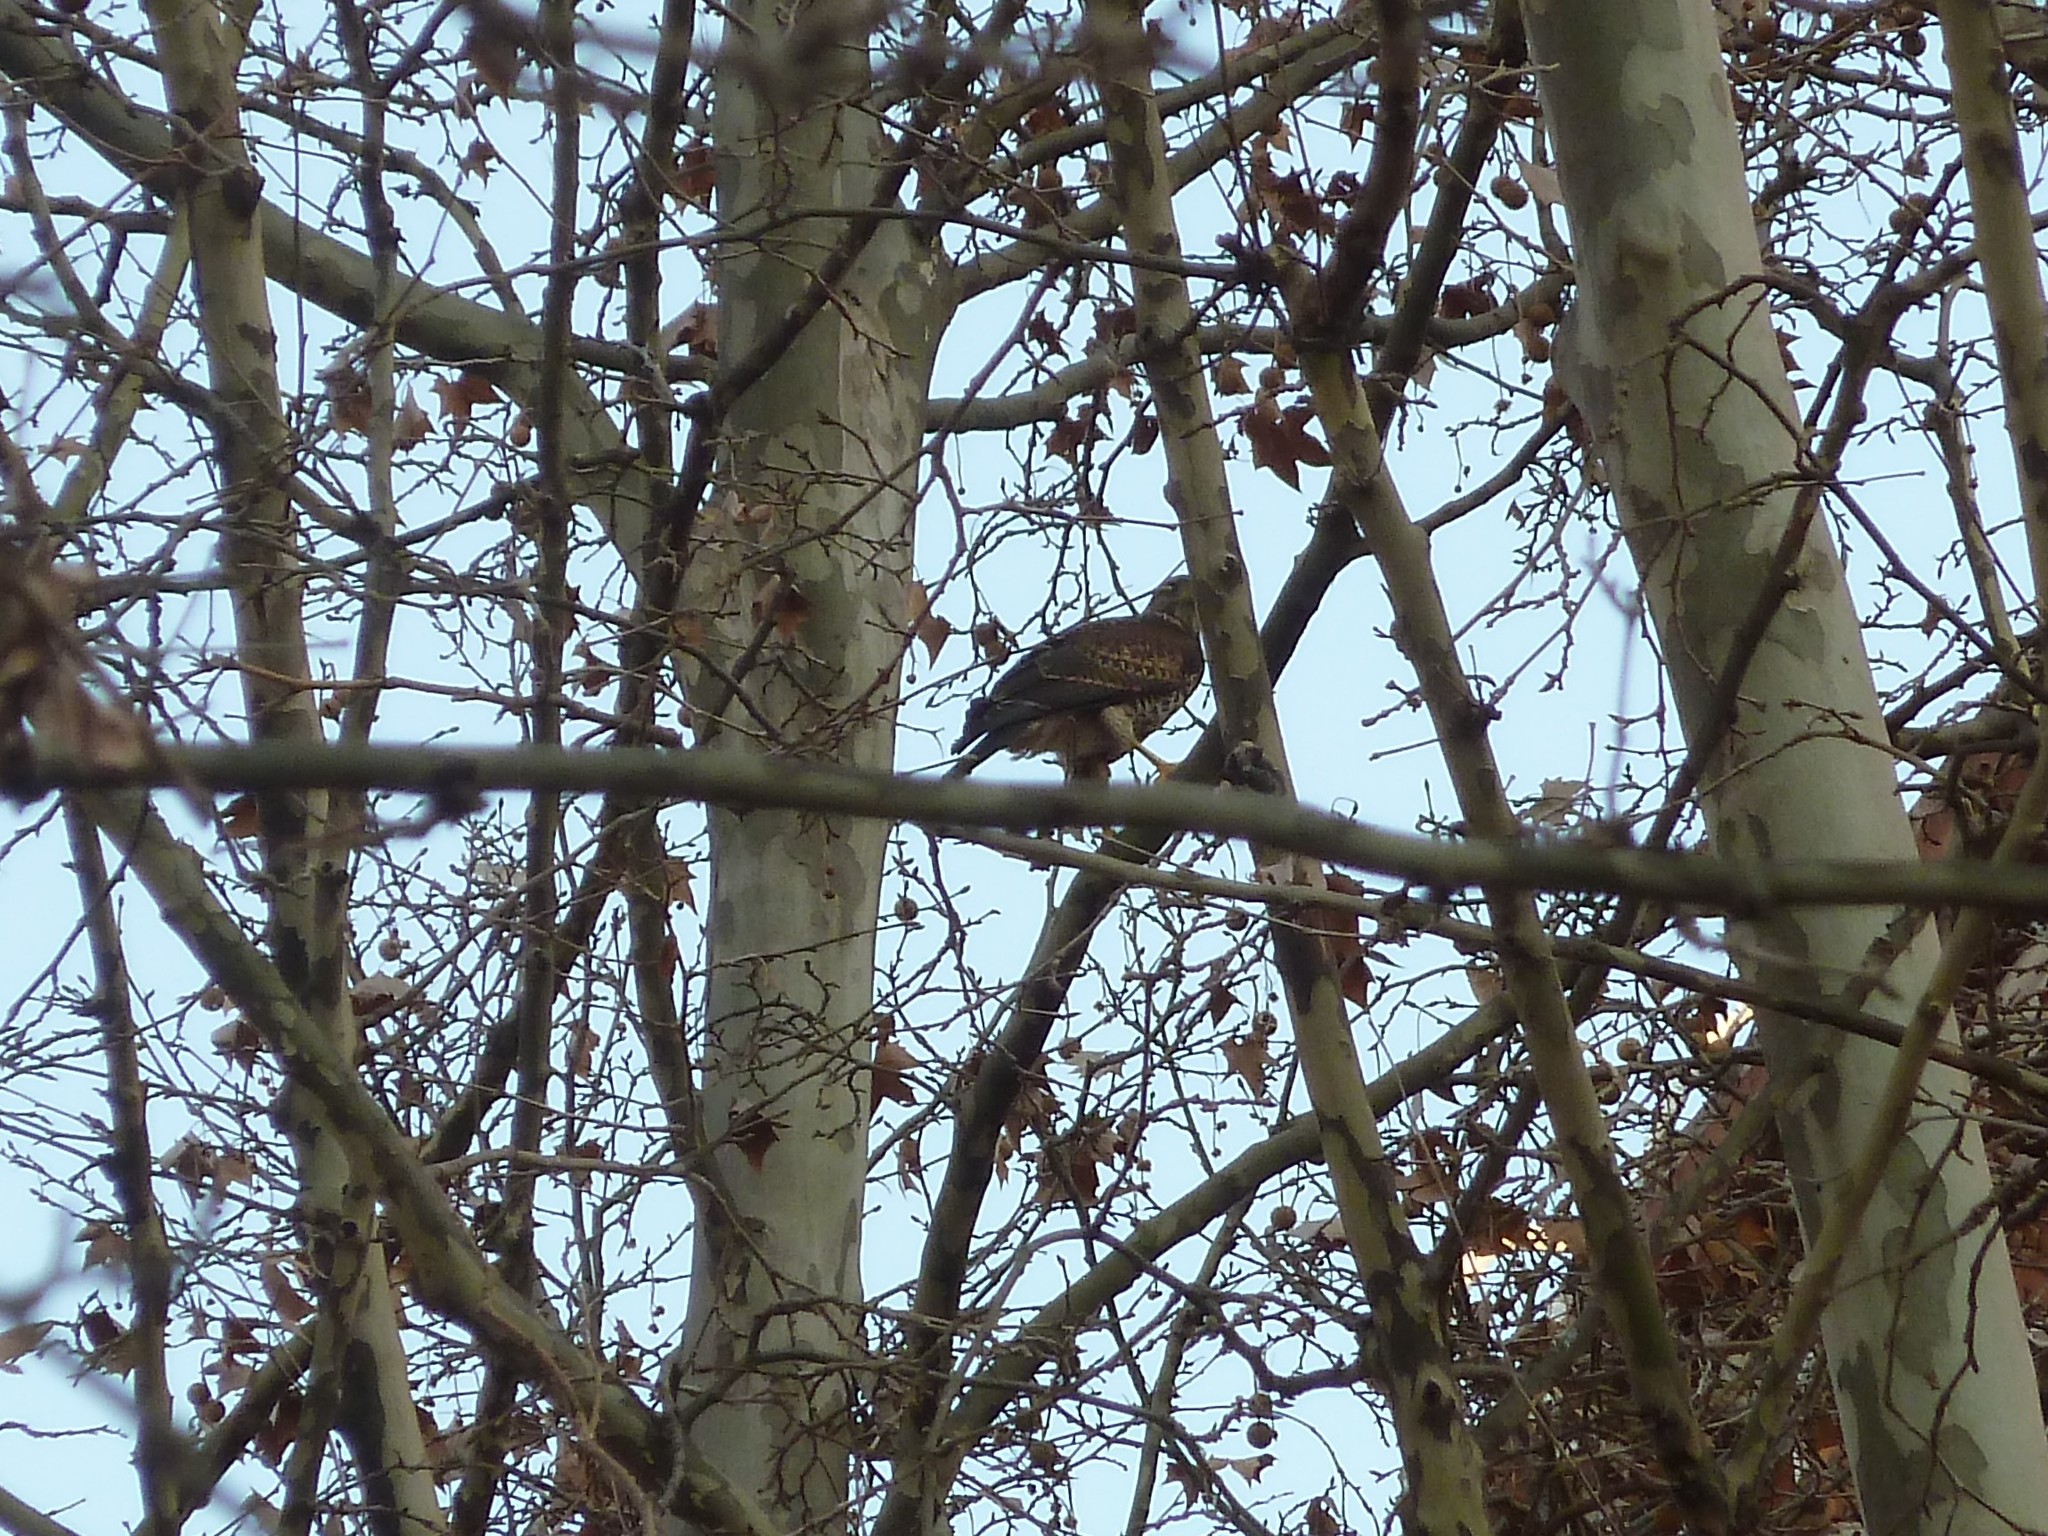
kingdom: Animalia
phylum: Chordata
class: Aves
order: Accipitriformes
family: Accipitridae
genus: Parabuteo
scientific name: Parabuteo unicinctus
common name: Harris's hawk
